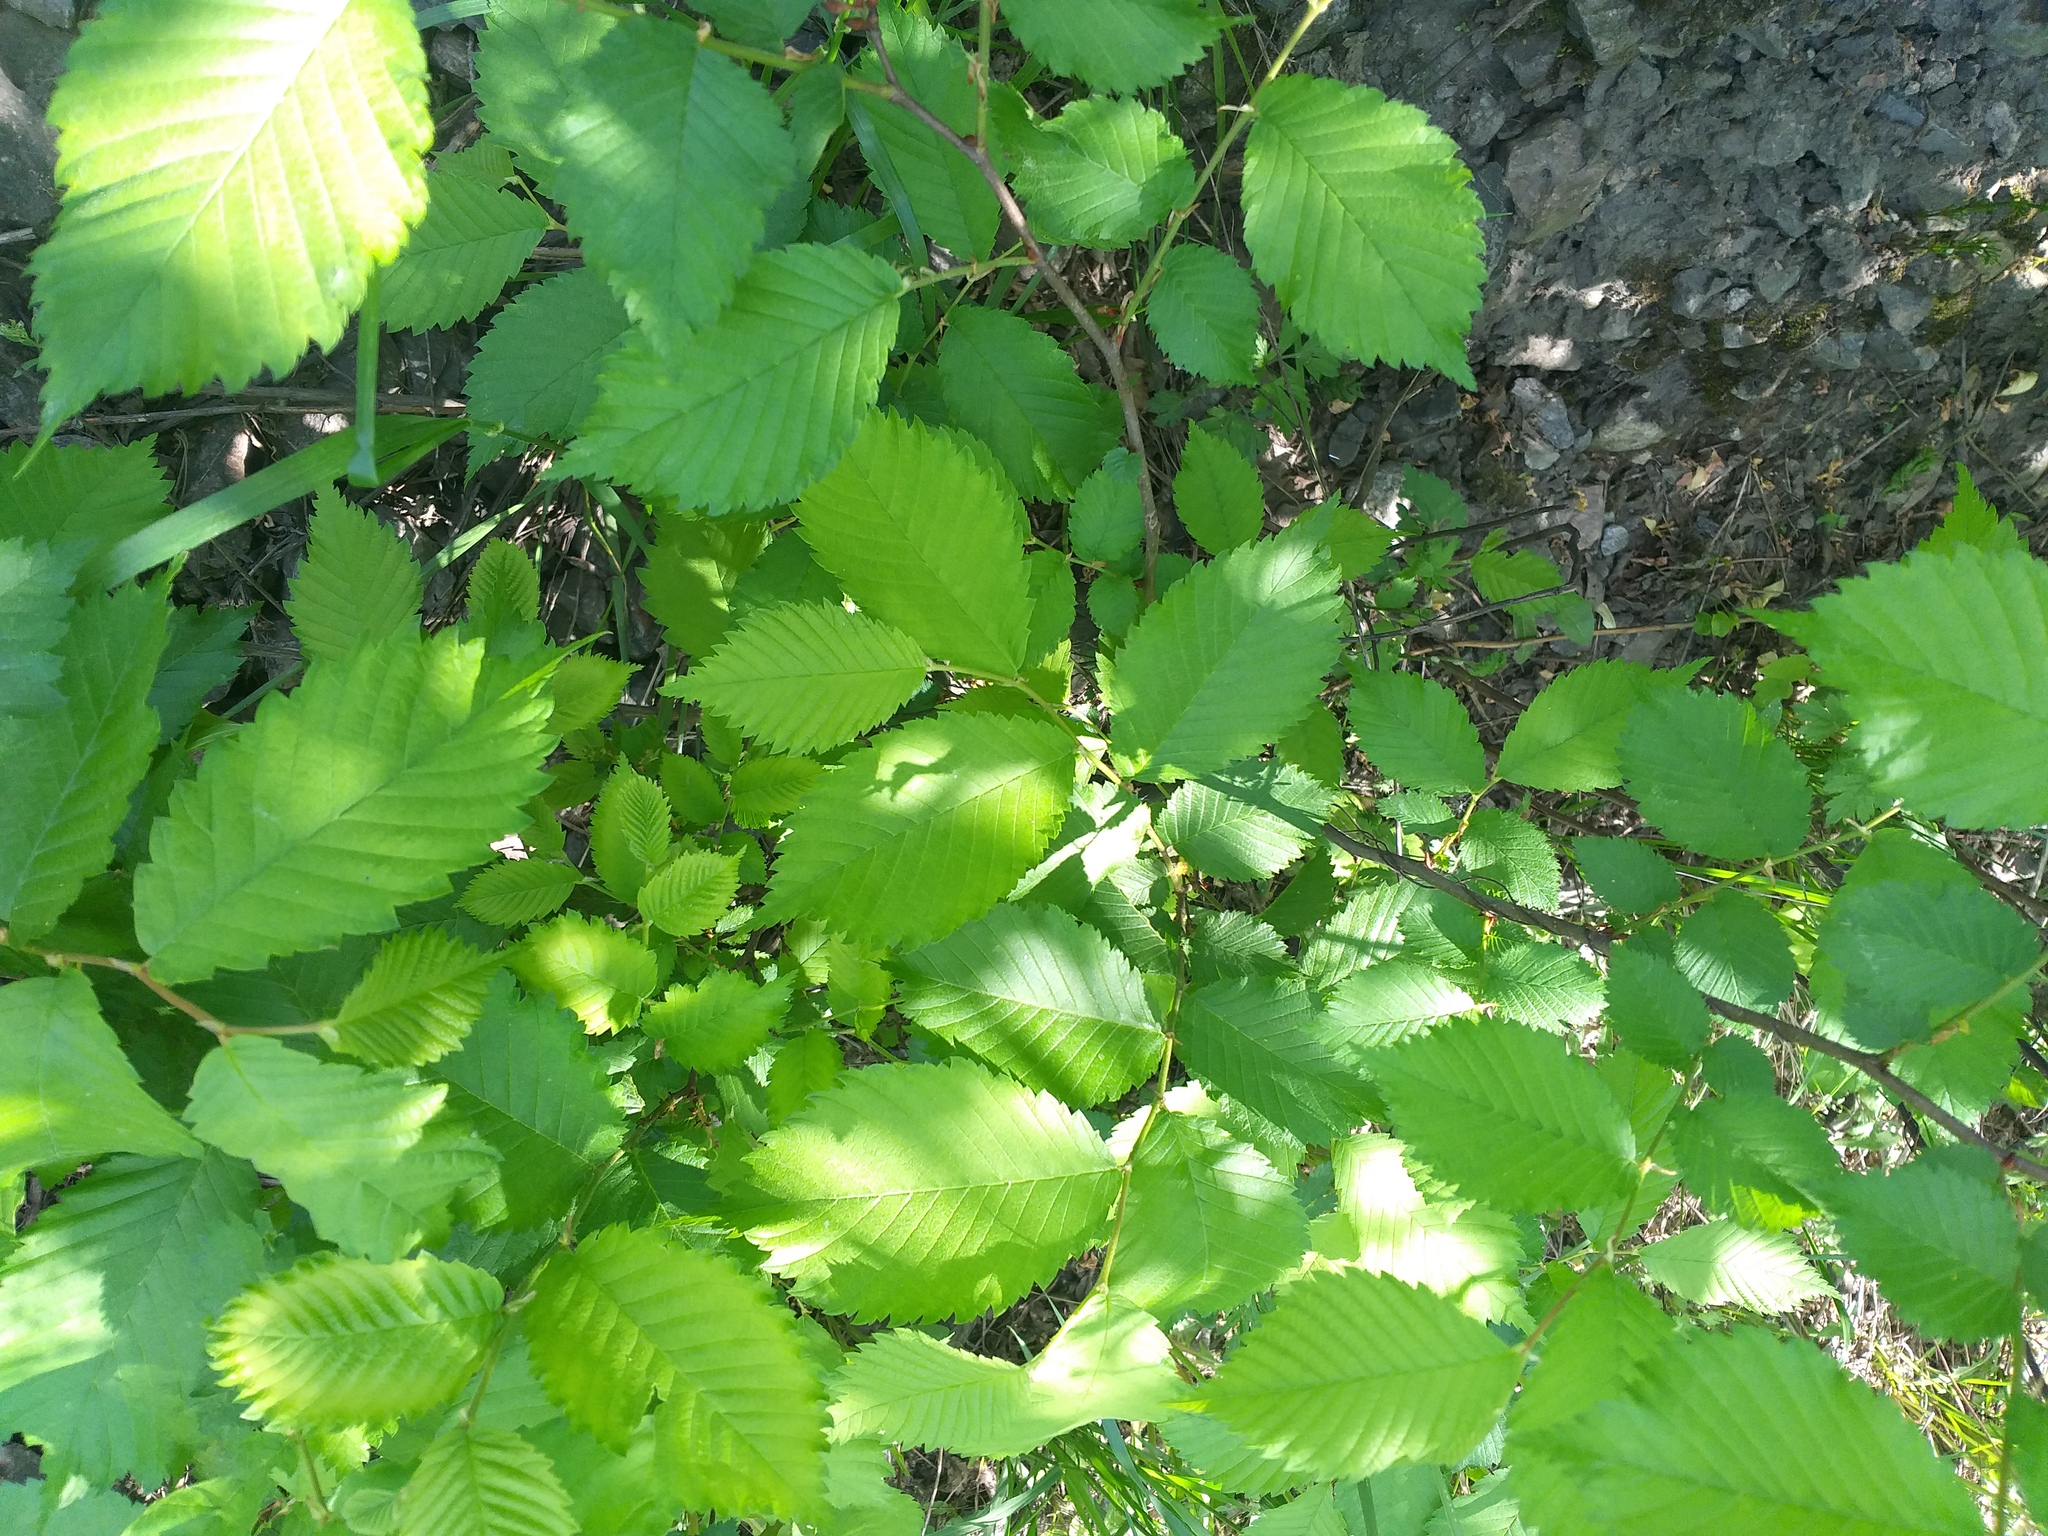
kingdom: Plantae
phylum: Tracheophyta
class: Magnoliopsida
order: Rosales
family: Ulmaceae
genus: Ulmus
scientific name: Ulmus laevis
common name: European white-elm
